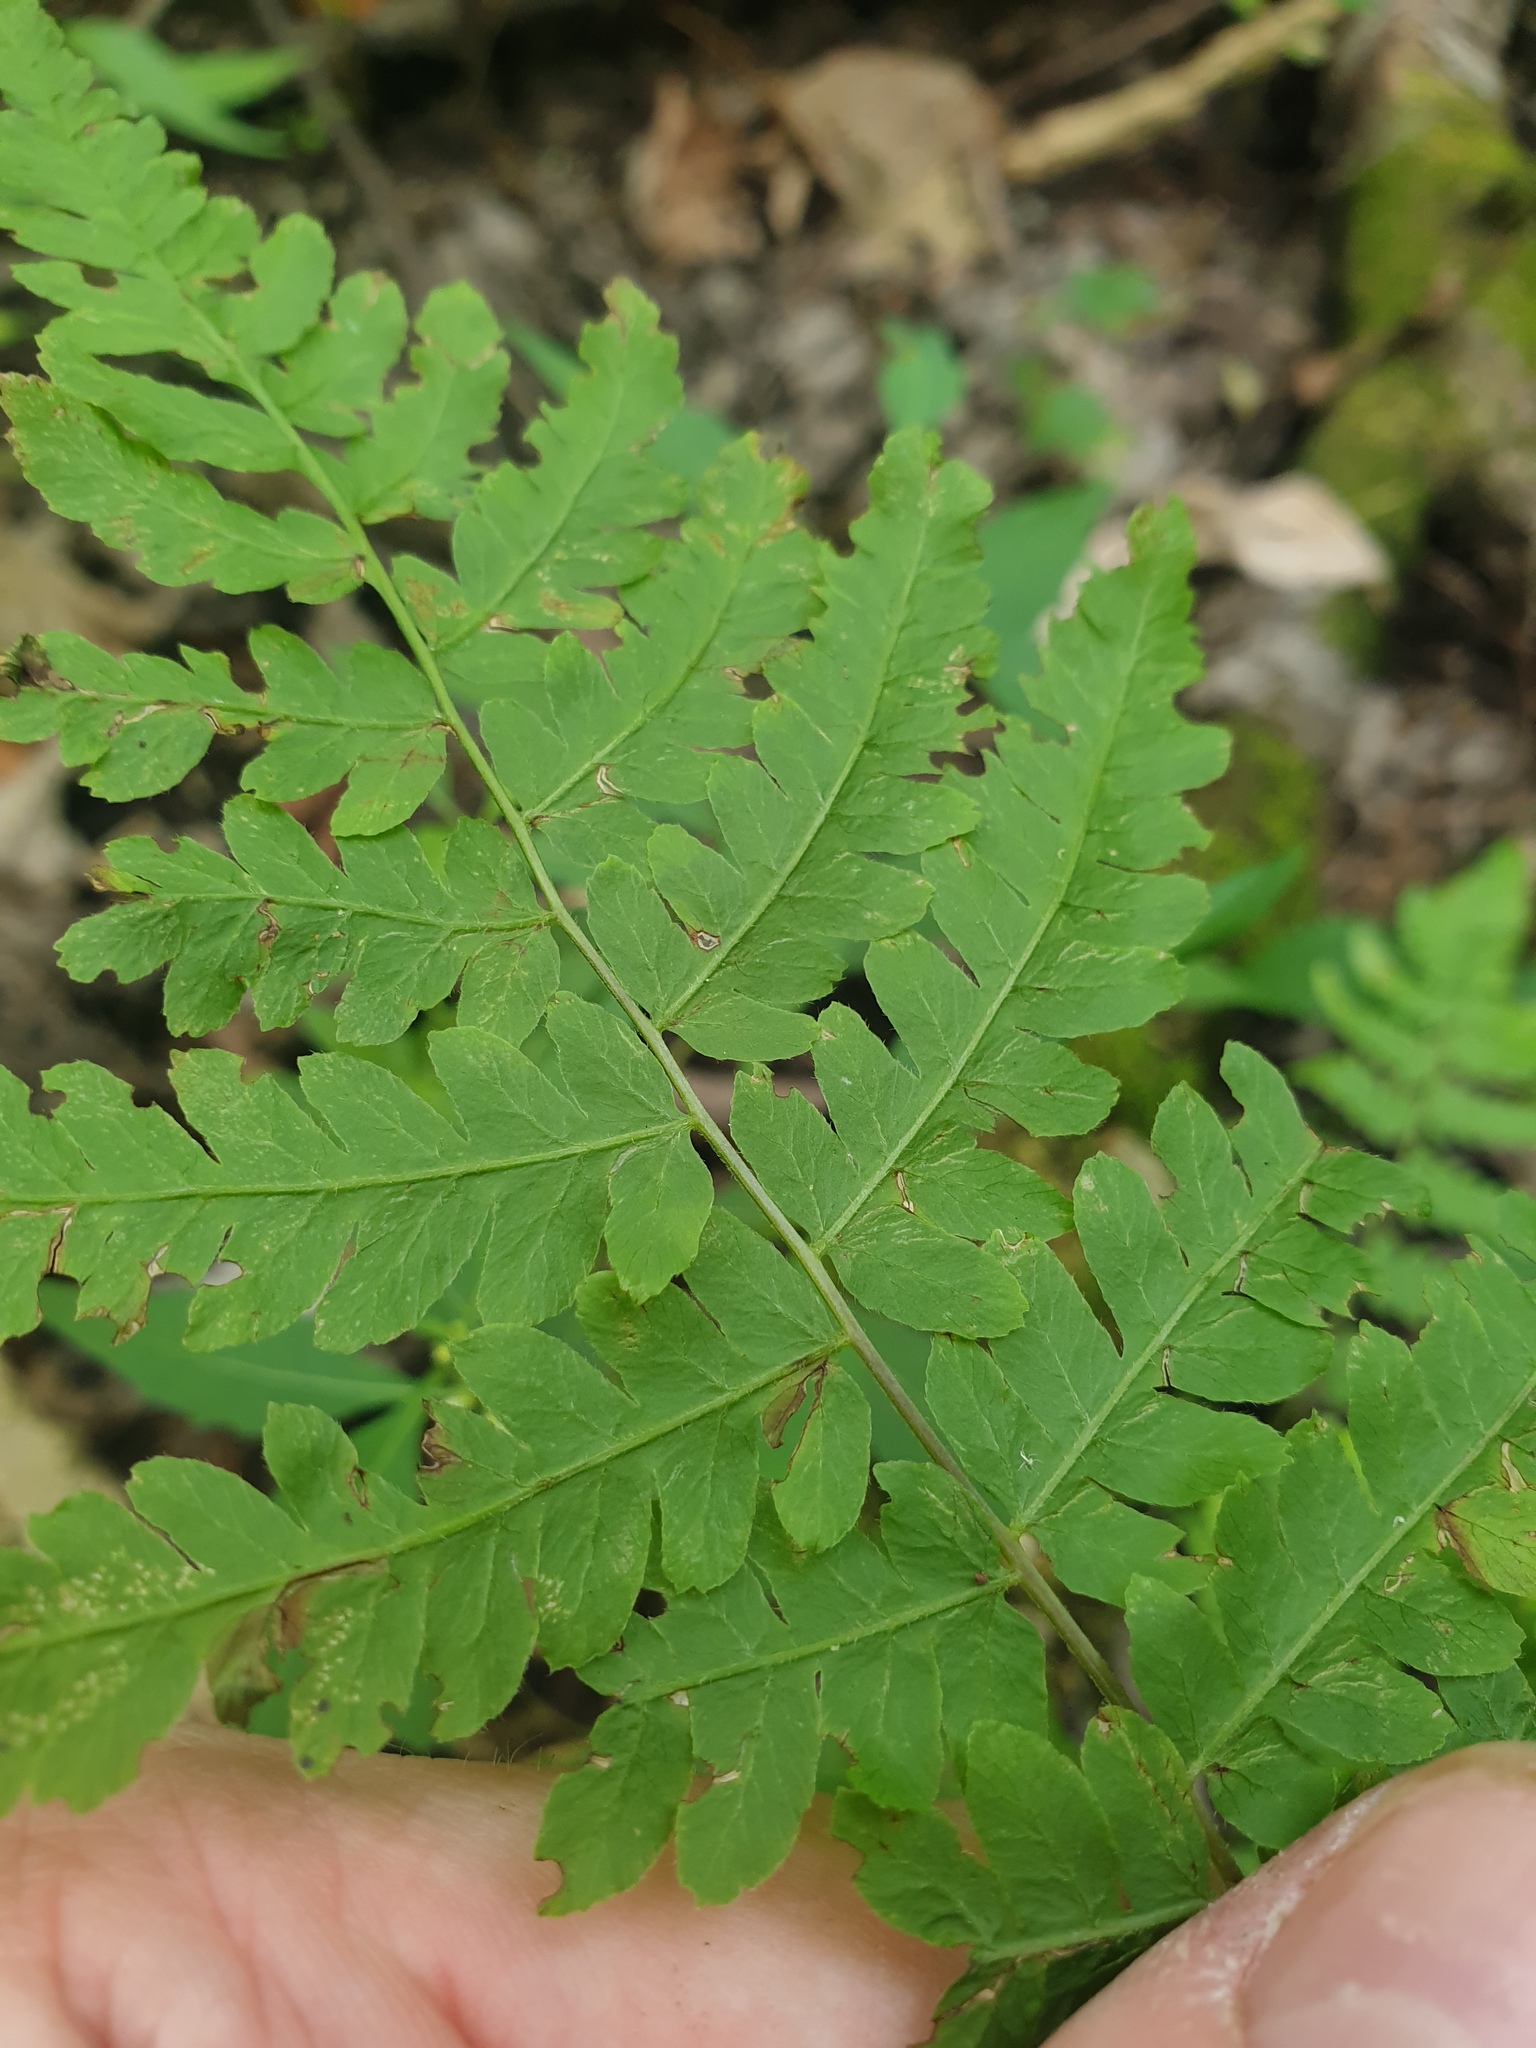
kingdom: Plantae
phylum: Tracheophyta
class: Polypodiopsida
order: Polypodiales
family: Thelypteridaceae
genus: Thelypteris
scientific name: Thelypteris palustris
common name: Marsh fern
